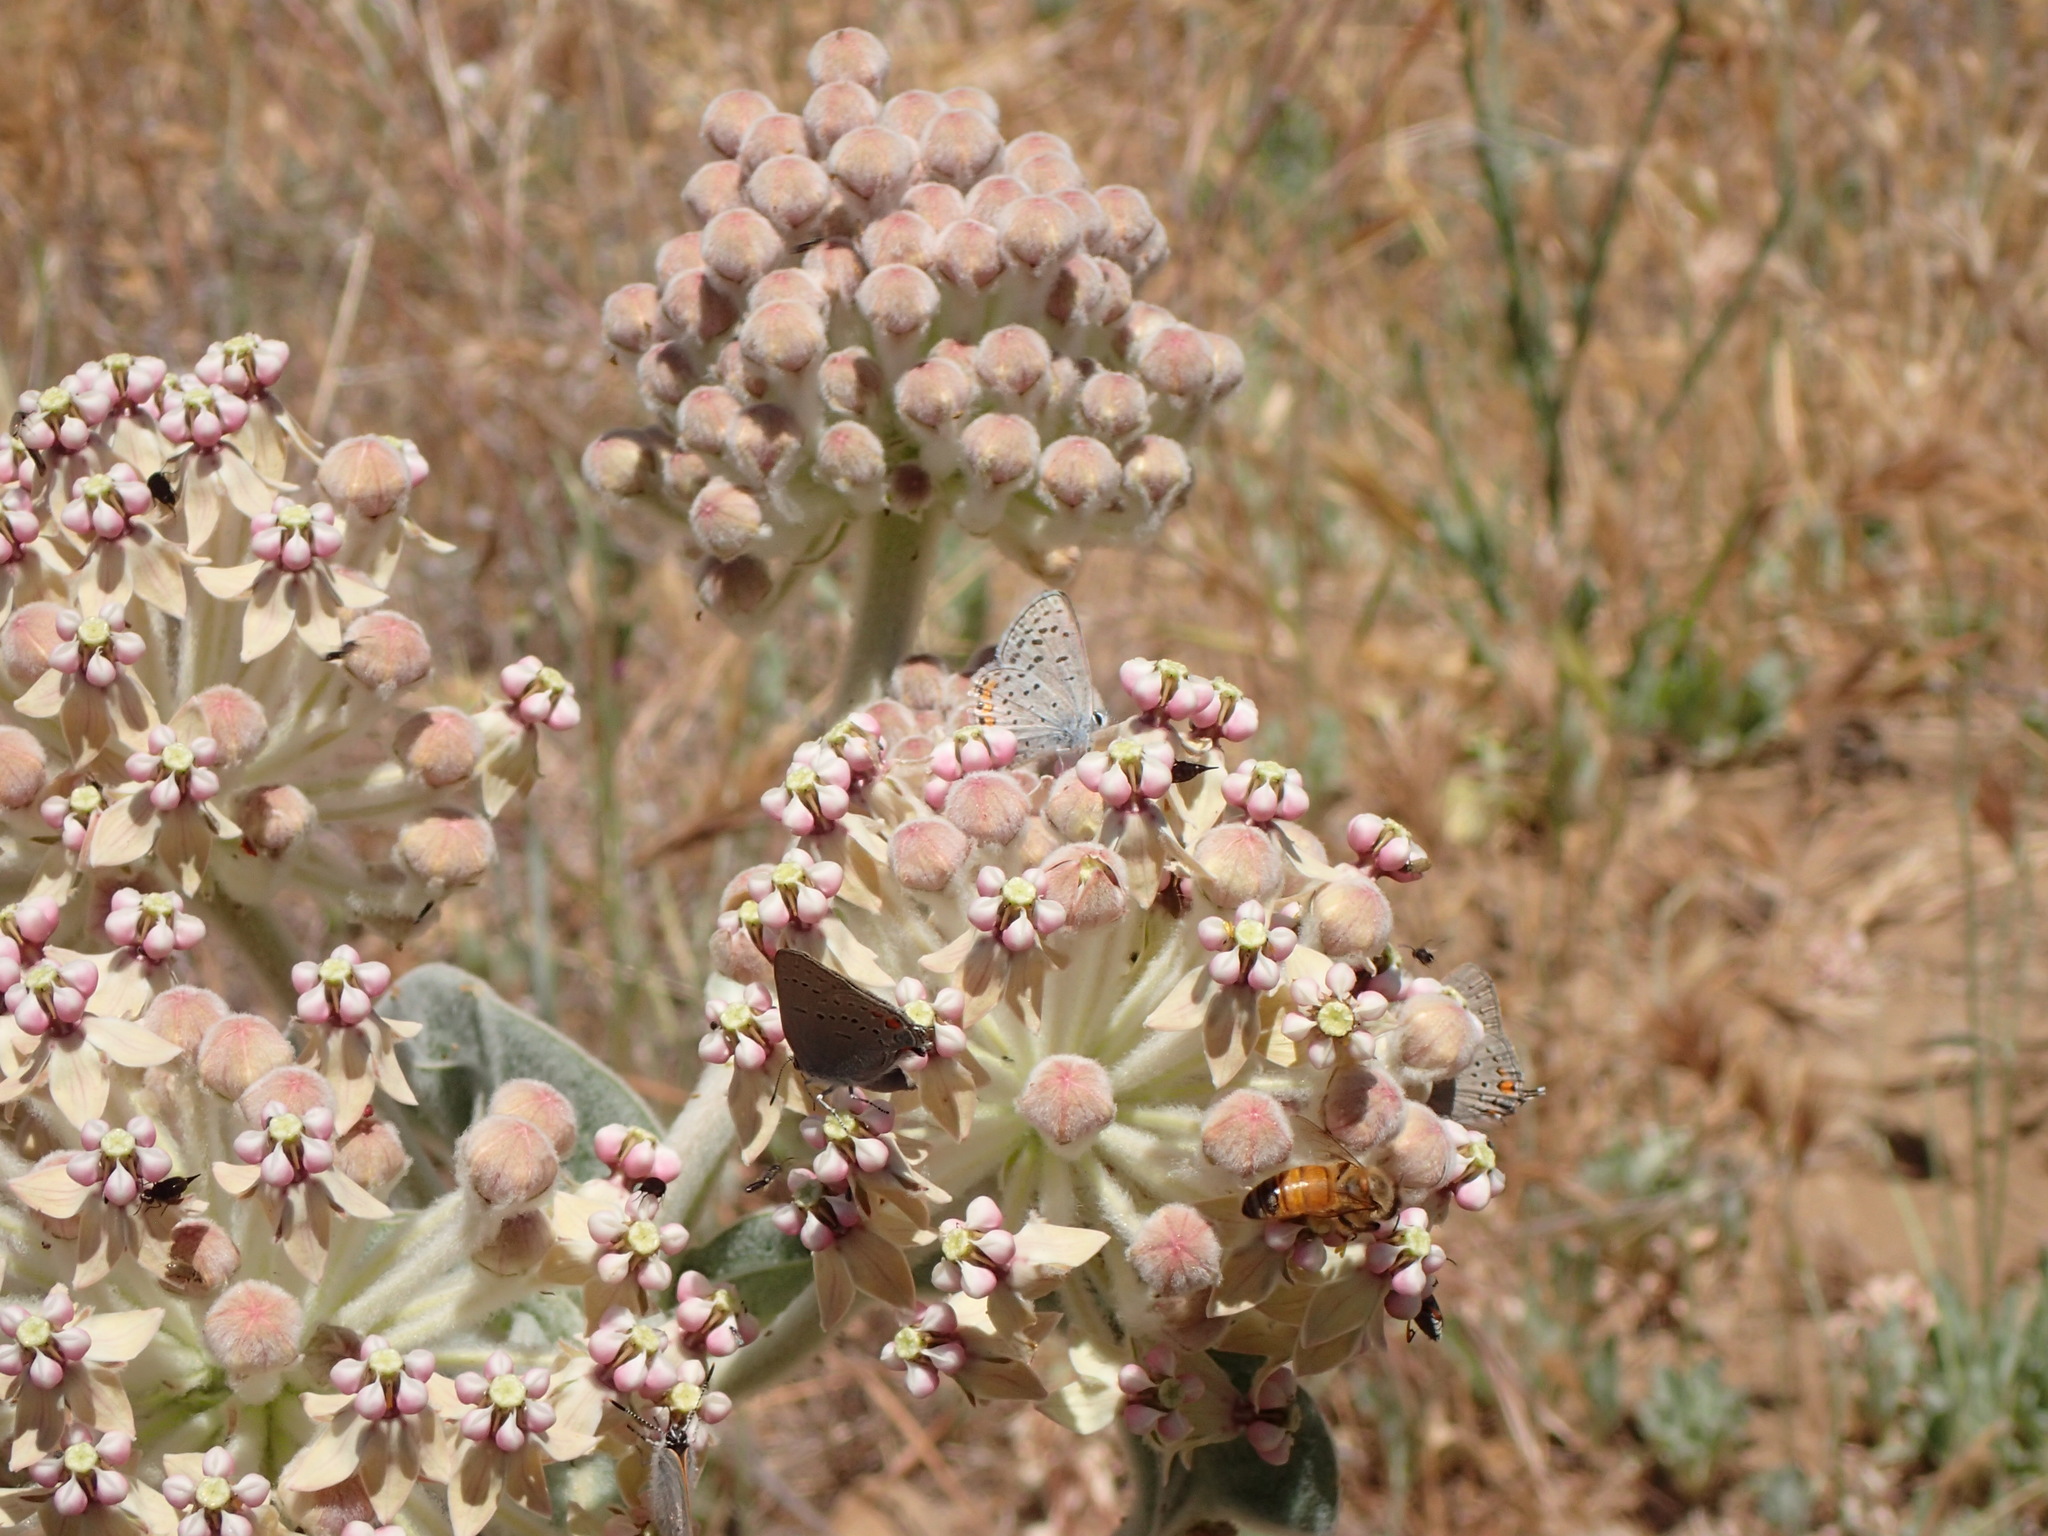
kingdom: Plantae
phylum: Tracheophyta
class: Magnoliopsida
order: Gentianales
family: Apocynaceae
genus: Asclepias
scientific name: Asclepias eriocarpa
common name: Indian milkweed
